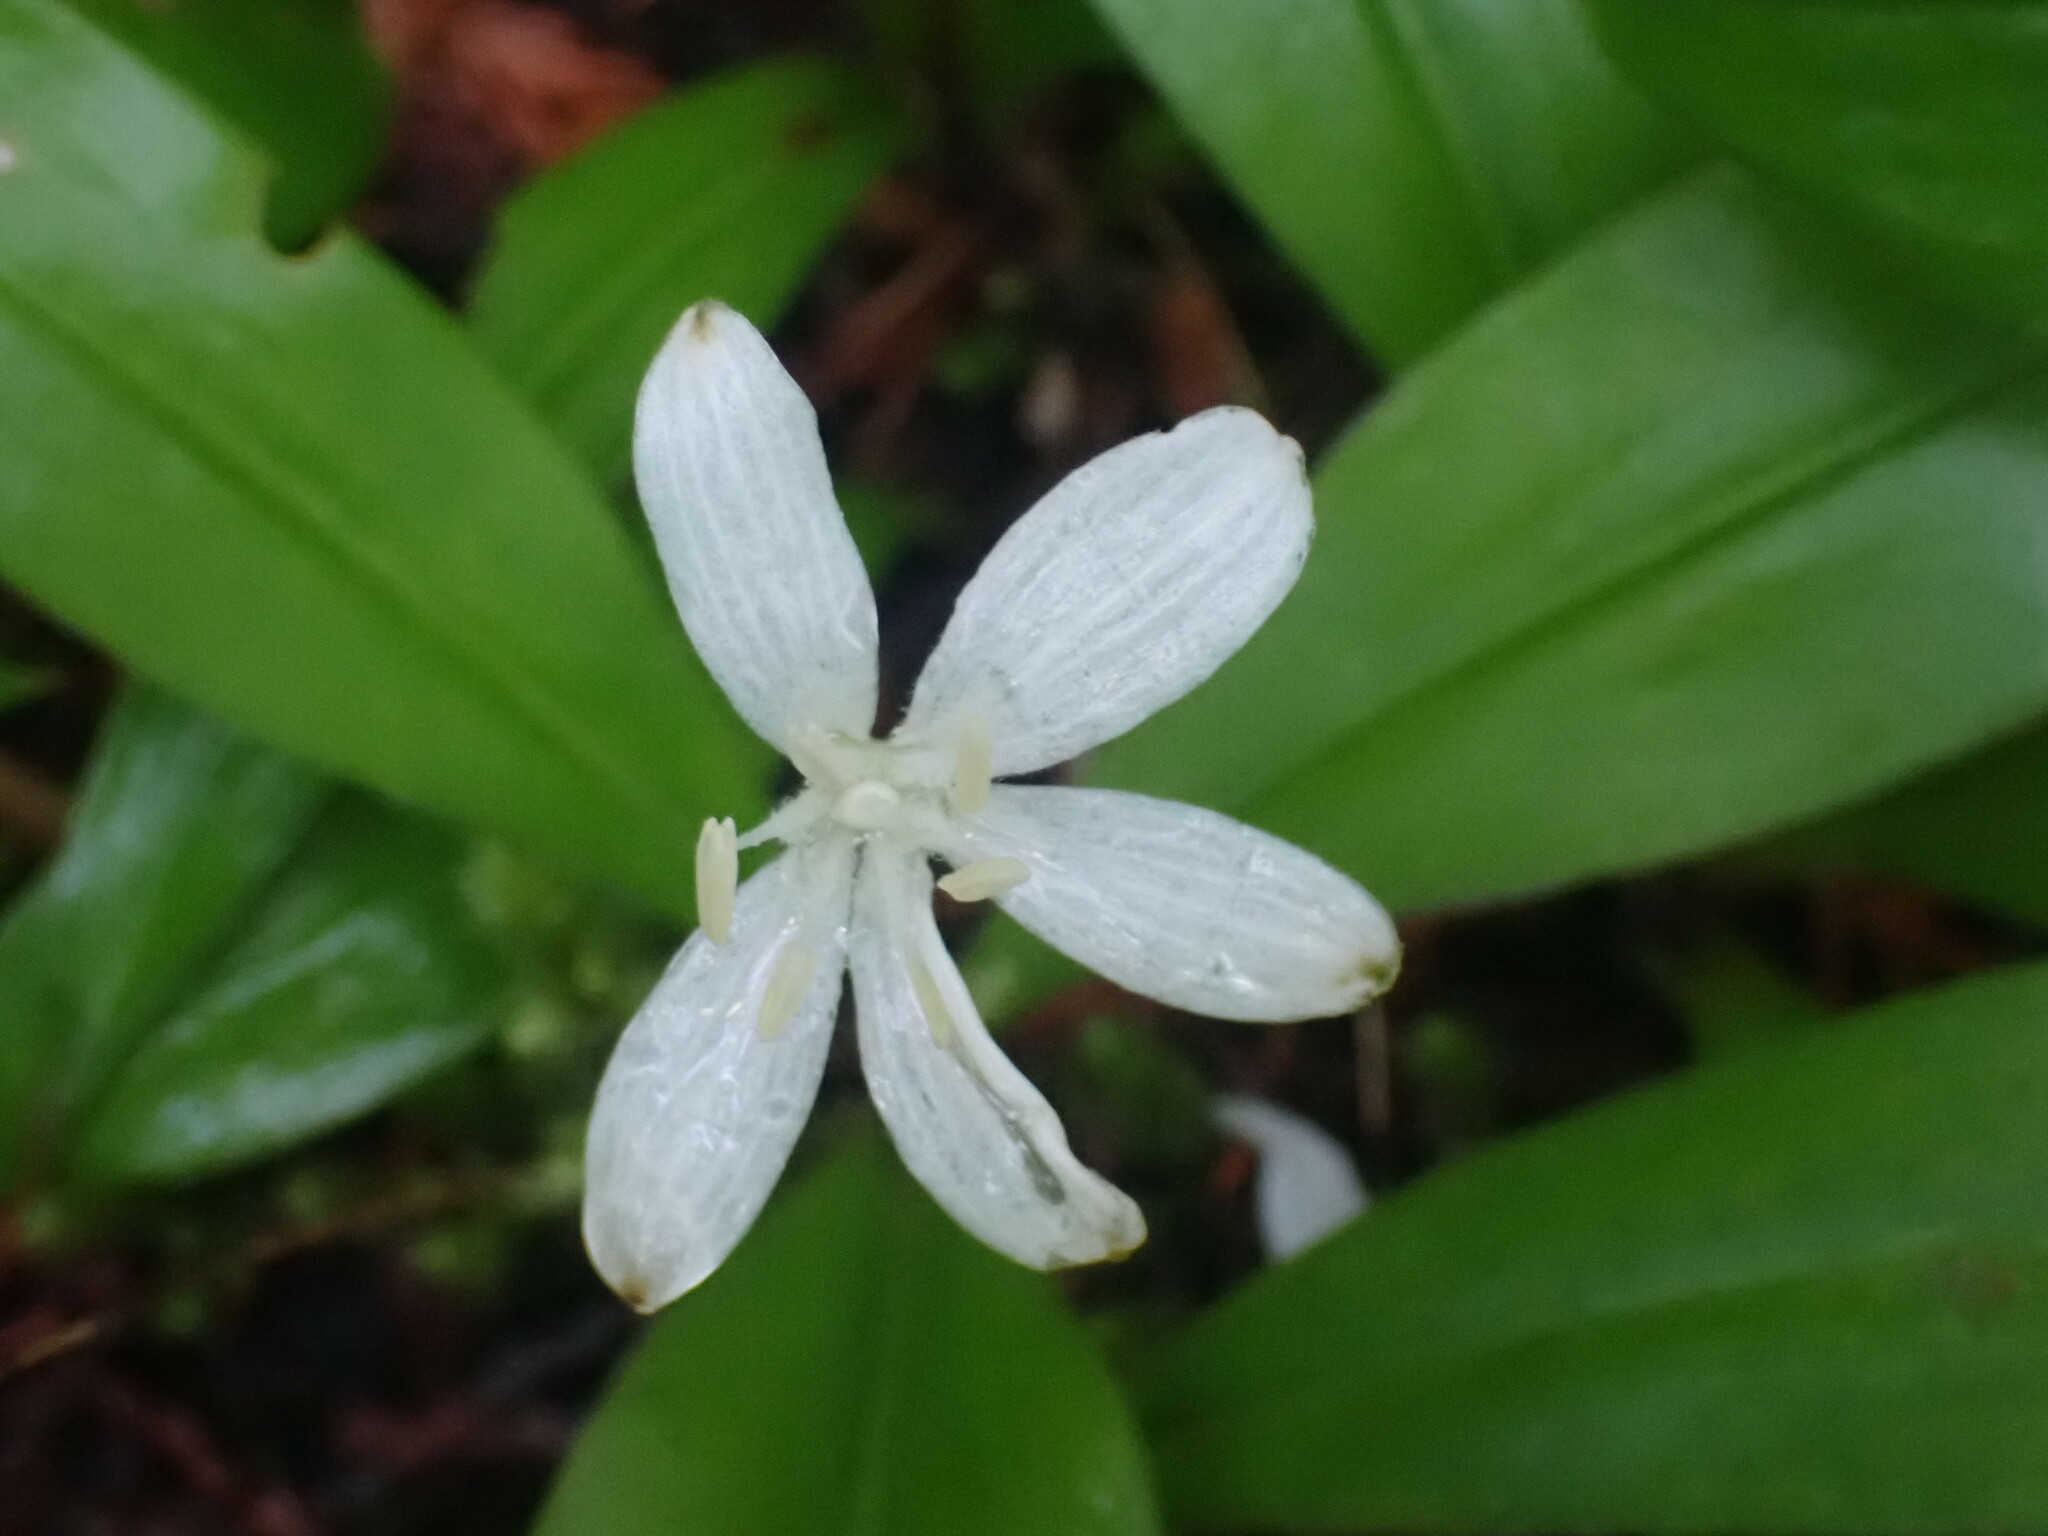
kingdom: Plantae
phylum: Tracheophyta
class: Liliopsida
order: Liliales
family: Liliaceae
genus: Clintonia
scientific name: Clintonia uniflora
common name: Queen's cup
